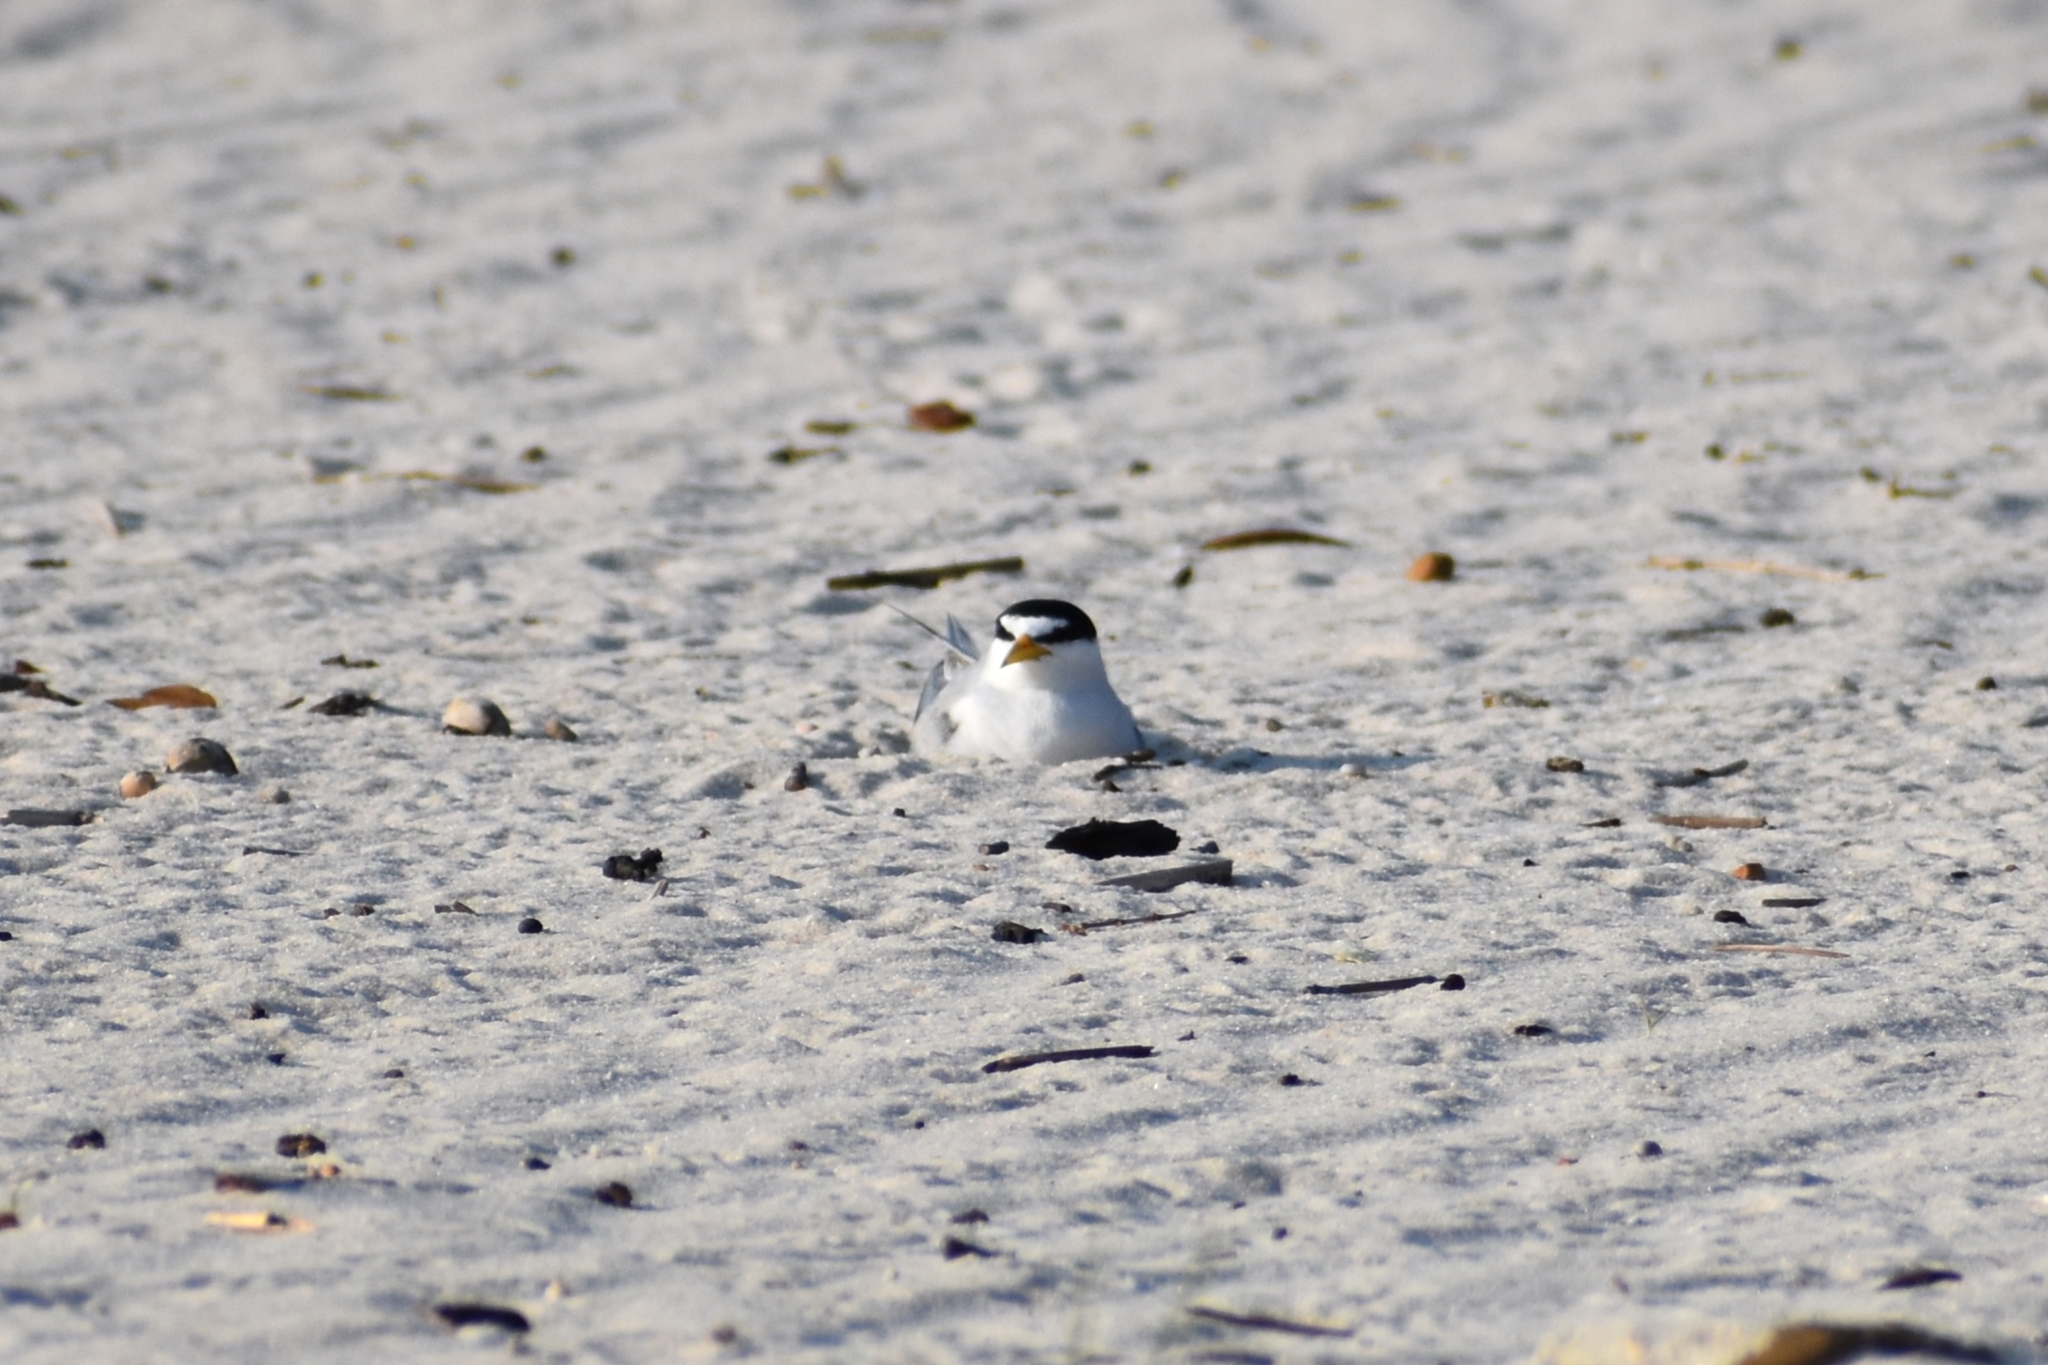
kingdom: Animalia
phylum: Chordata
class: Aves
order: Charadriiformes
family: Laridae
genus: Sternula
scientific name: Sternula antillarum
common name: Least tern
